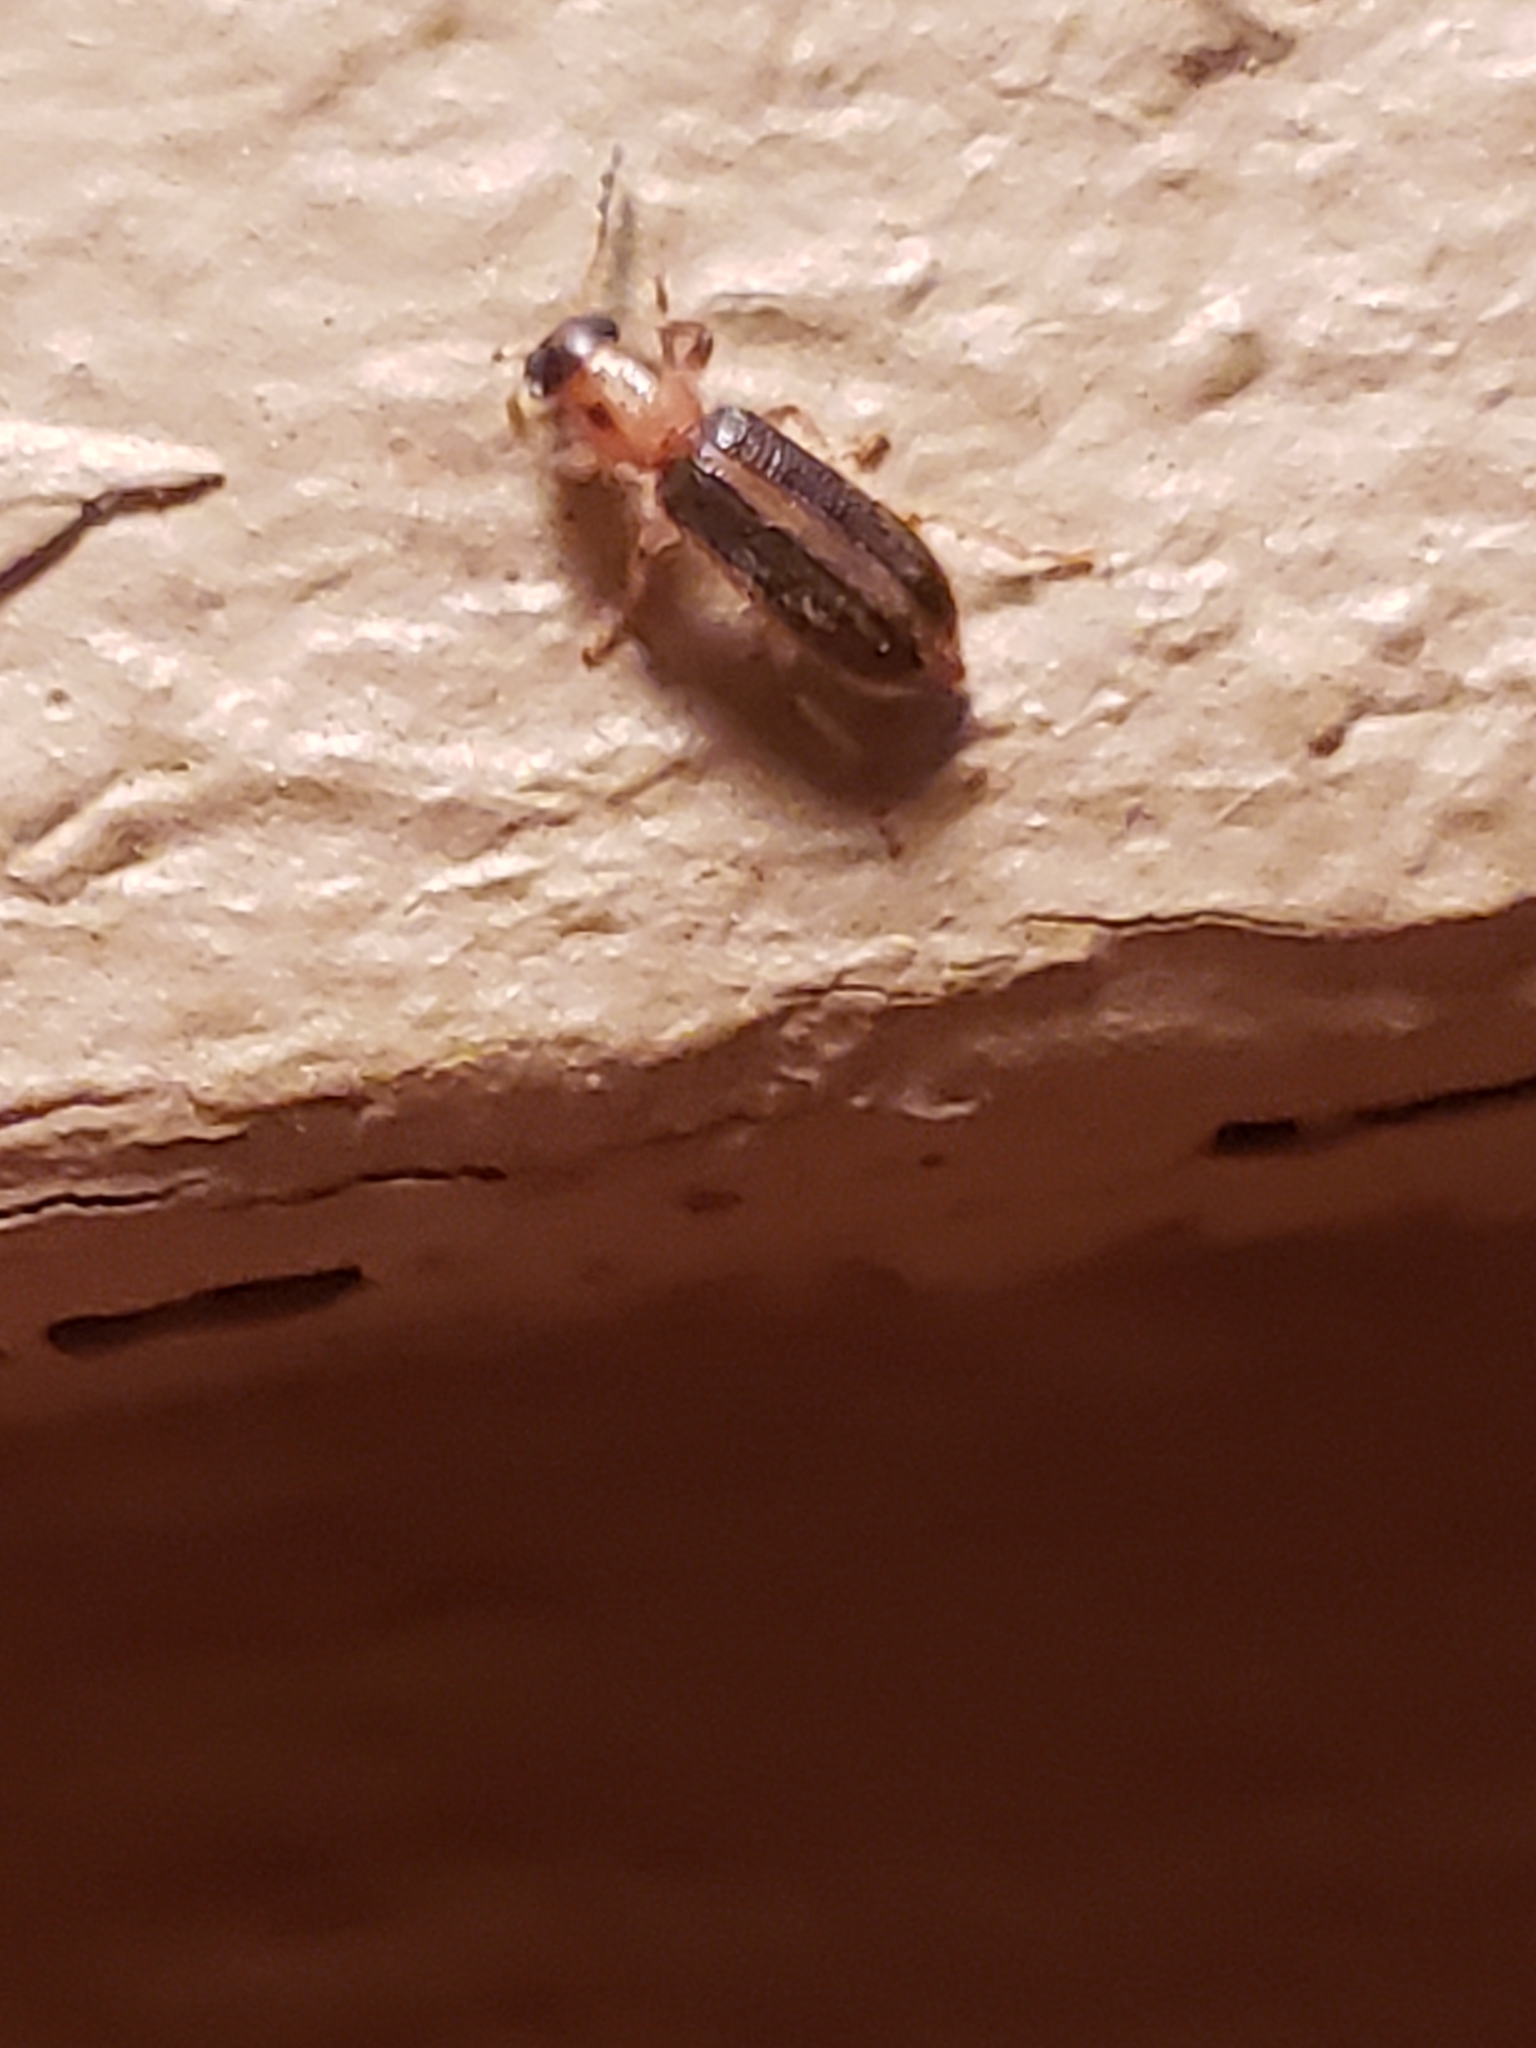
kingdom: Animalia
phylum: Arthropoda
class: Insecta
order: Coleoptera
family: Cleridae
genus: Cregya
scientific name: Cregya oculata
